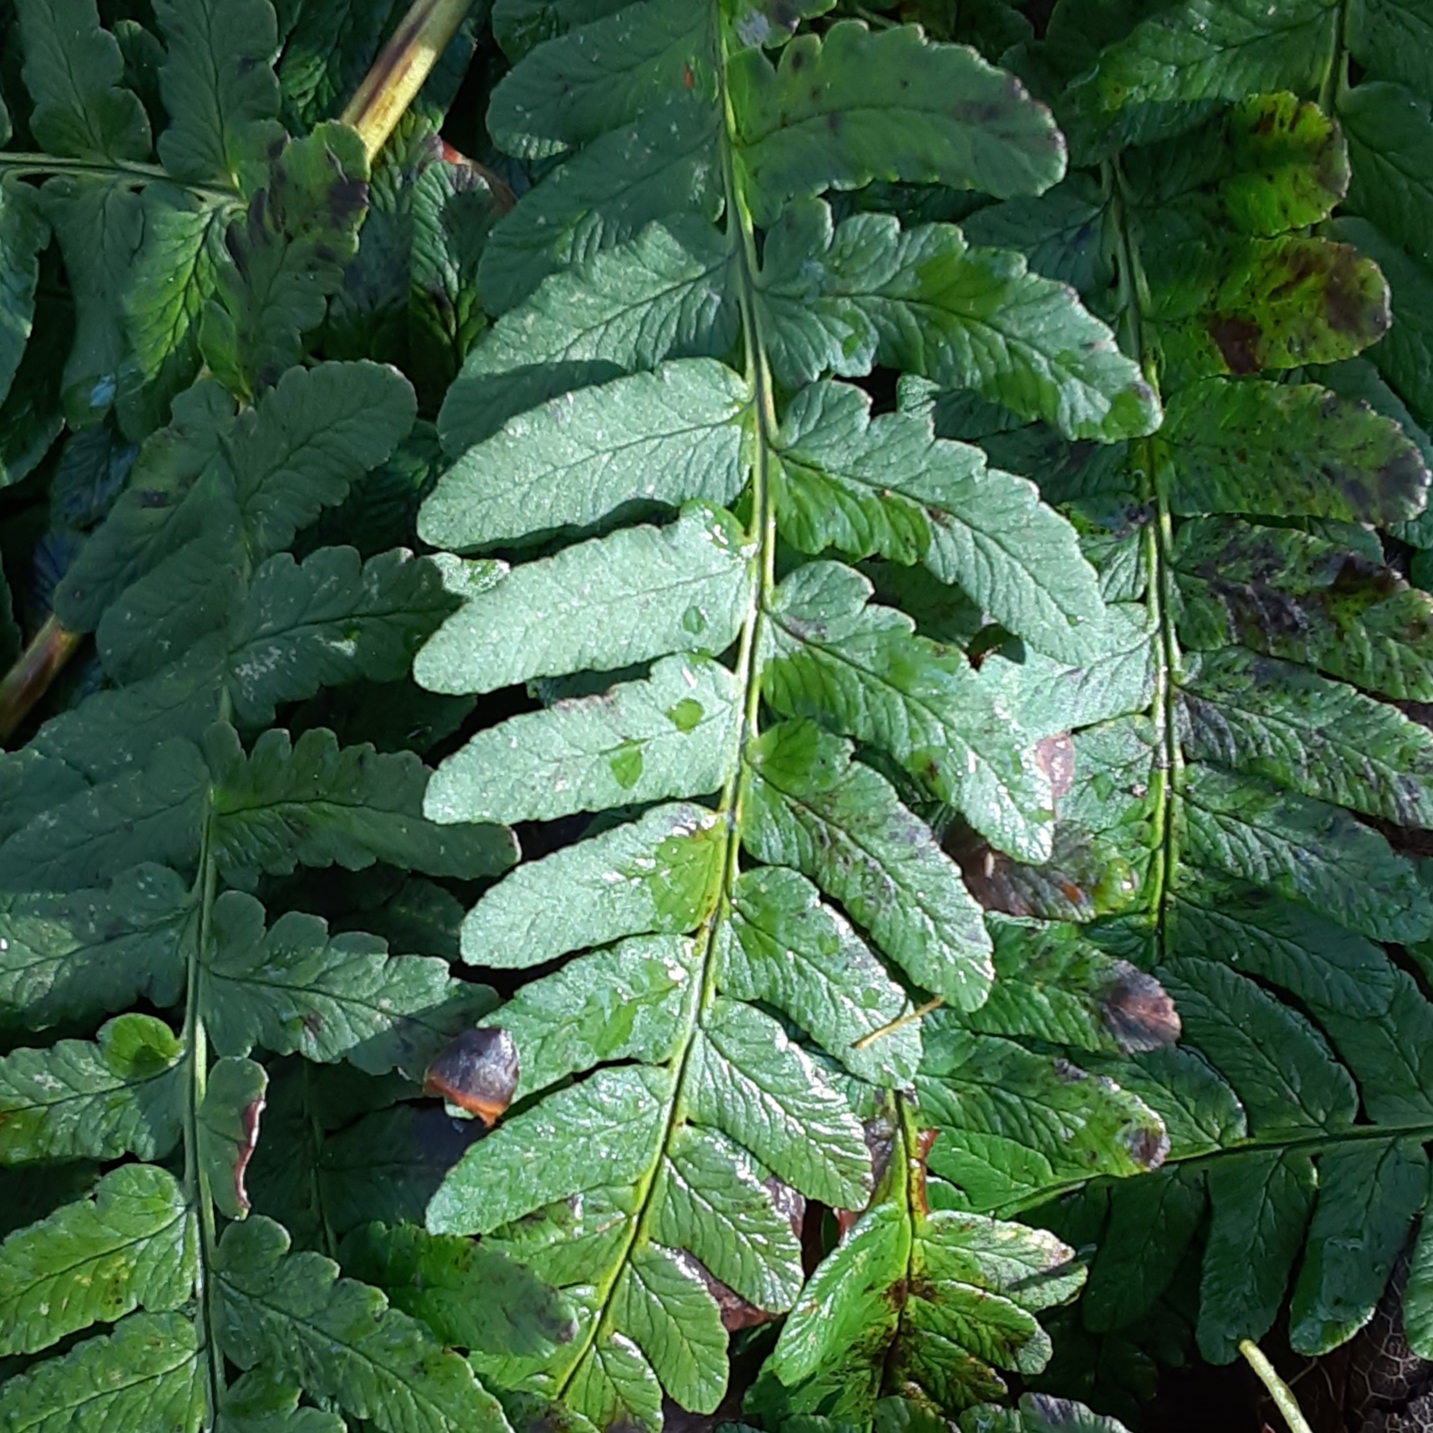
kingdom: Plantae
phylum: Tracheophyta
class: Polypodiopsida
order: Polypodiales
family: Dryopteridaceae
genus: Dryopteris
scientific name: Dryopteris marginalis
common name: Marginal wood fern
